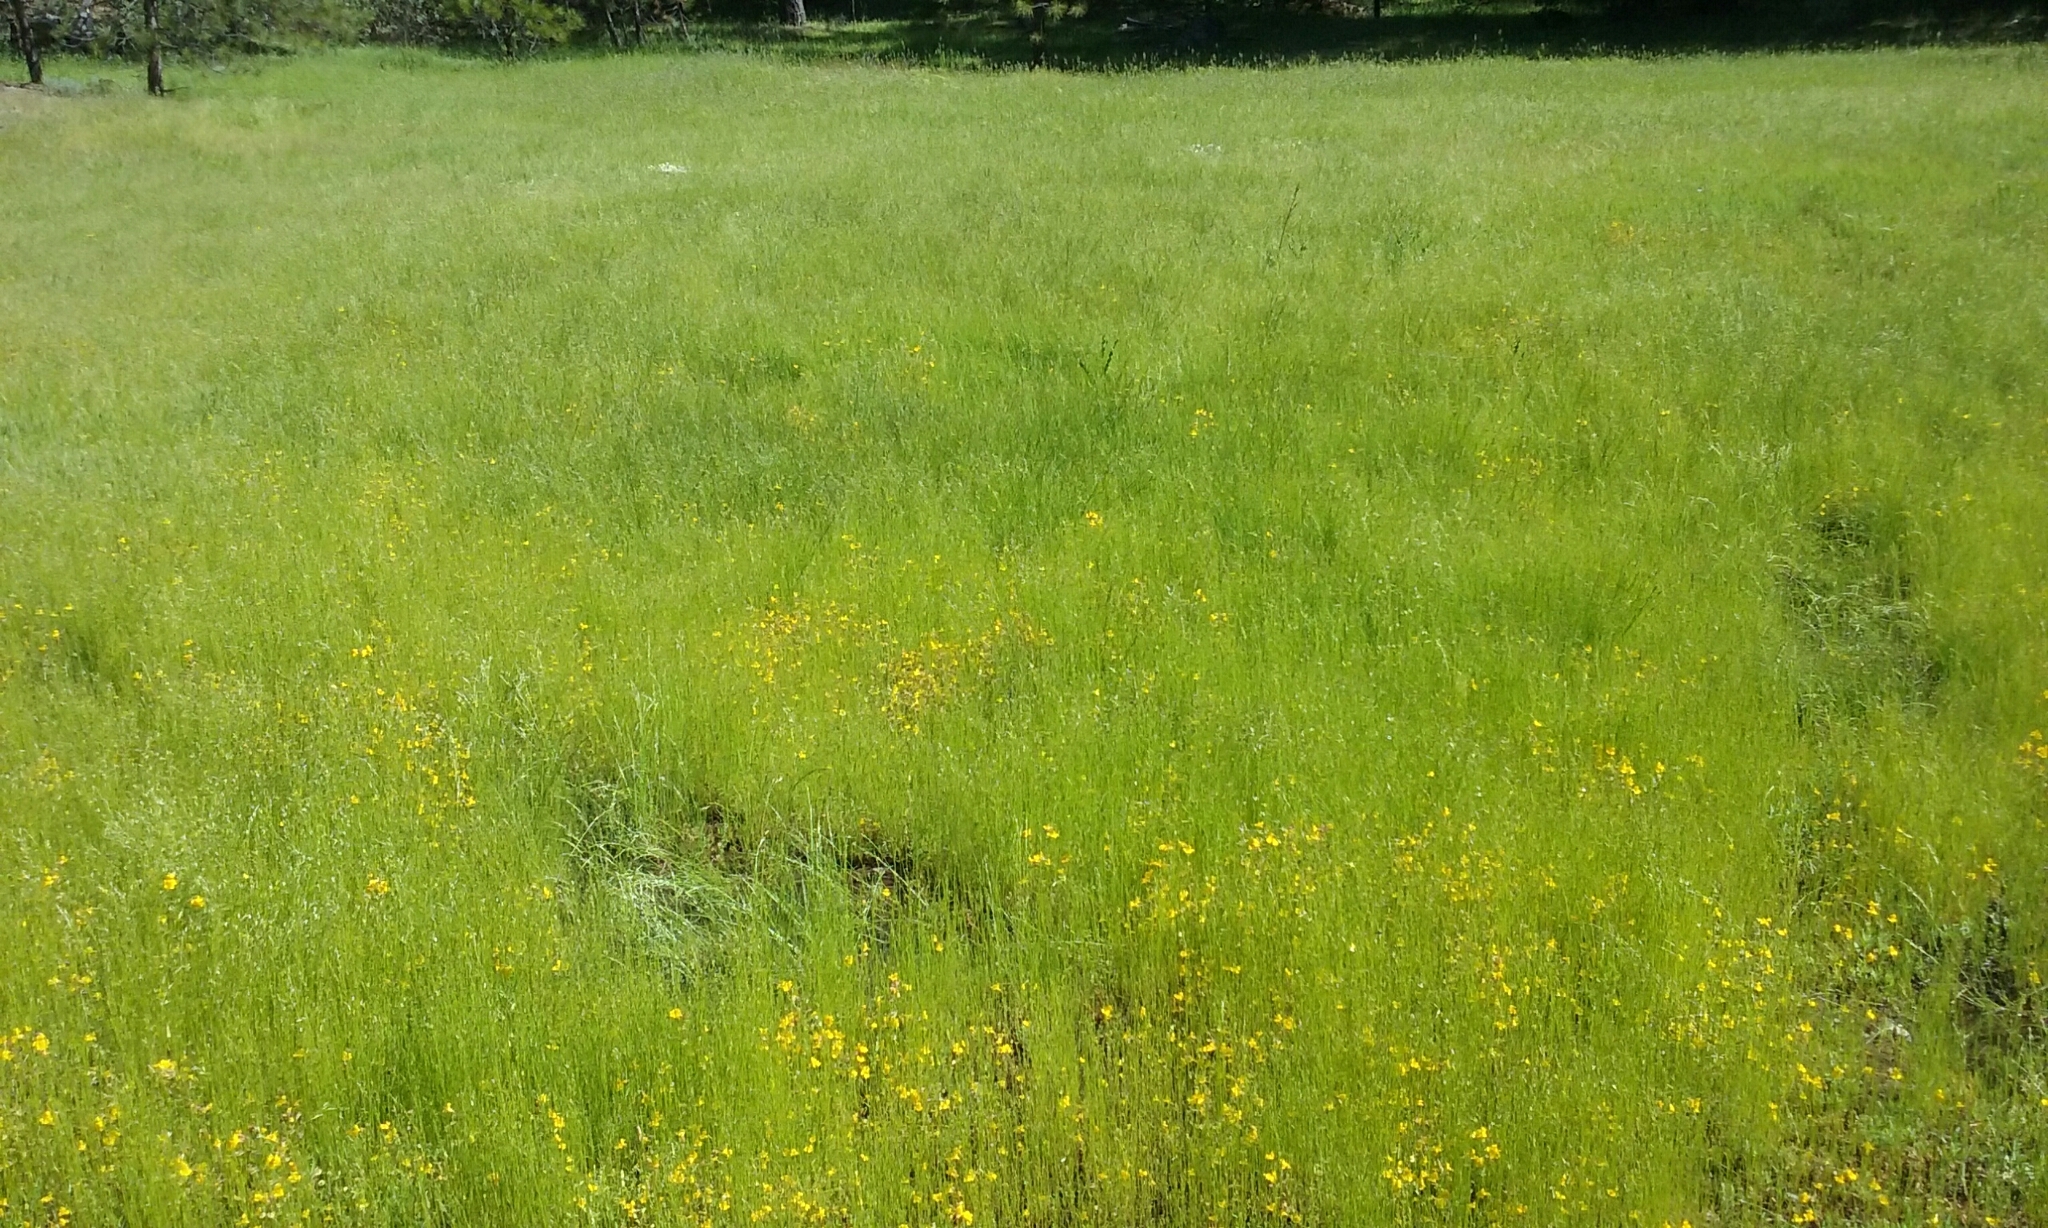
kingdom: Plantae
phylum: Tracheophyta
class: Magnoliopsida
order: Lamiales
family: Phrymaceae
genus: Erythranthe
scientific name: Erythranthe guttata
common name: Monkeyflower
